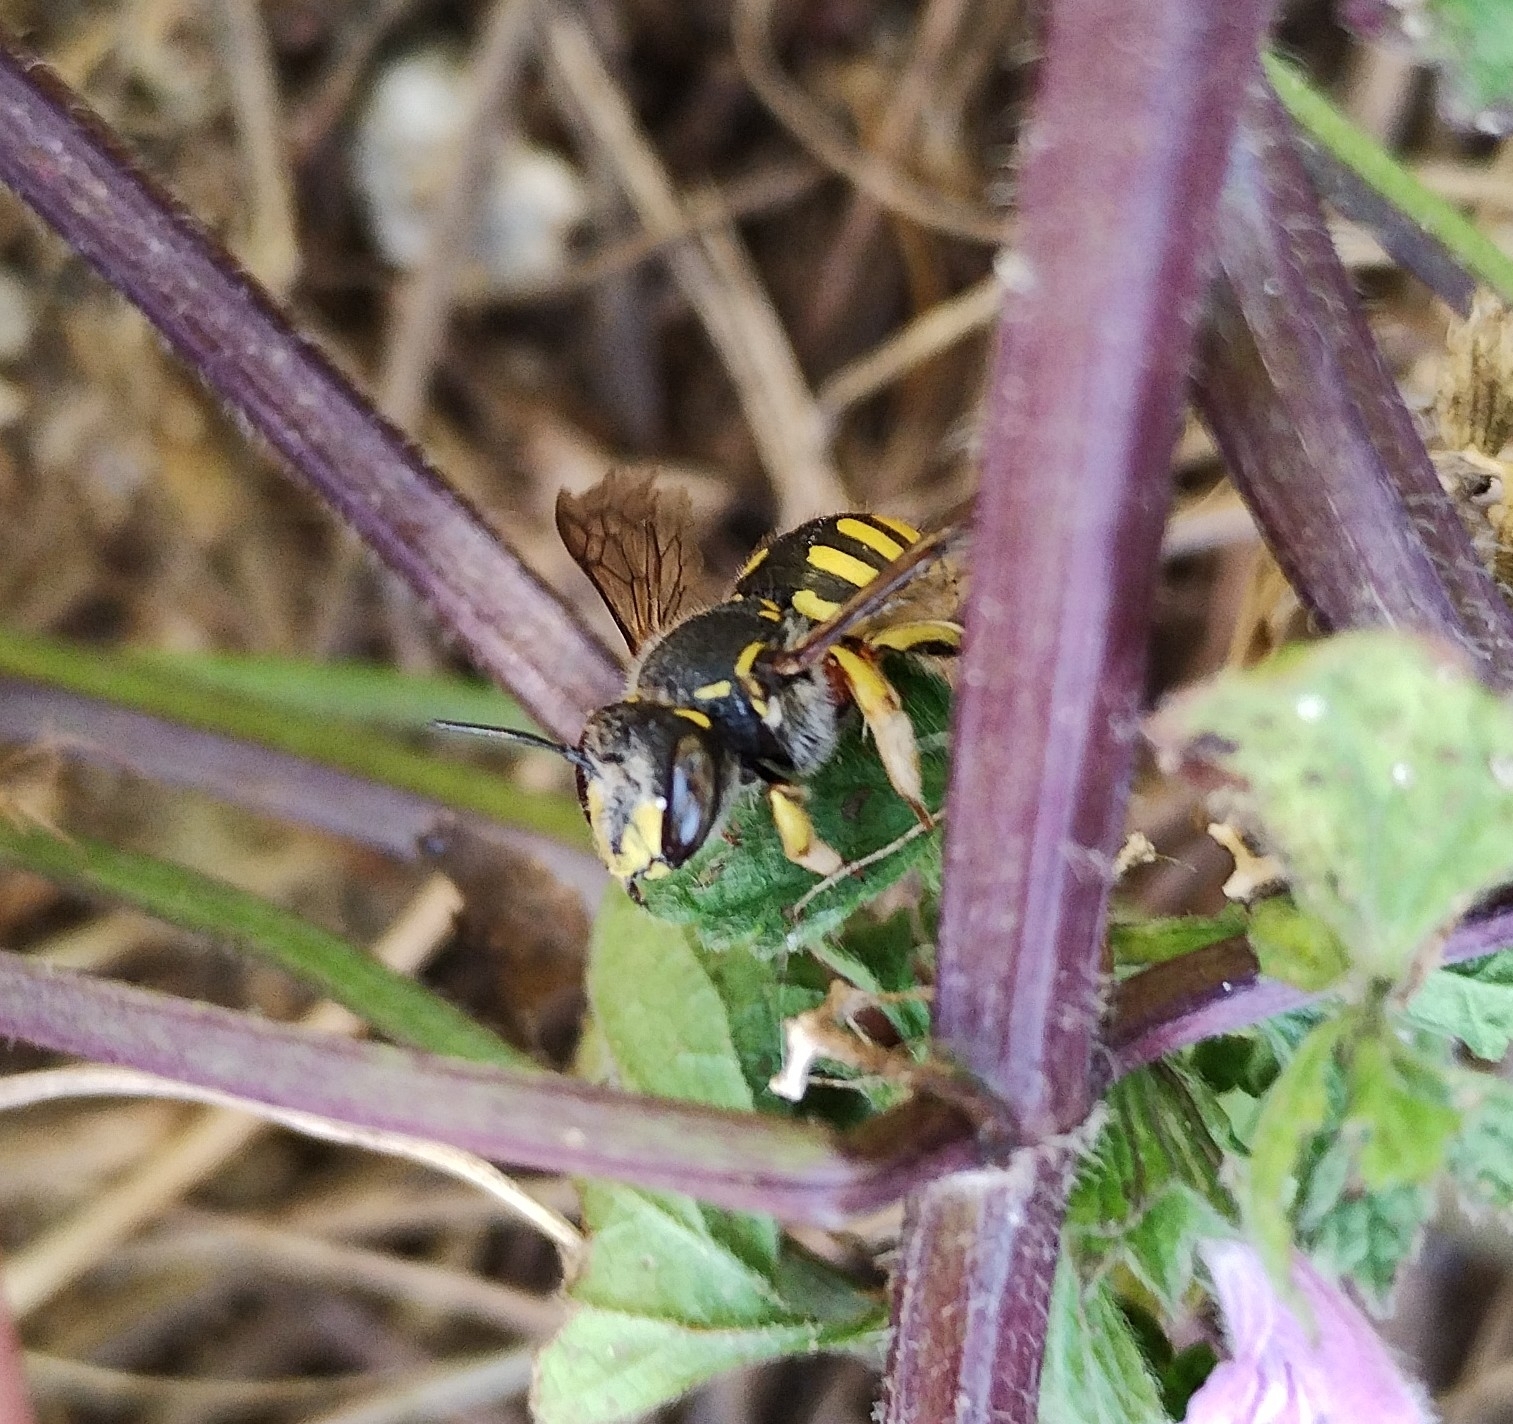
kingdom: Animalia
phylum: Arthropoda
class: Insecta
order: Hymenoptera
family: Megachilidae
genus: Anthidium
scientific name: Anthidium manicatum
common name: Wool carder bee
